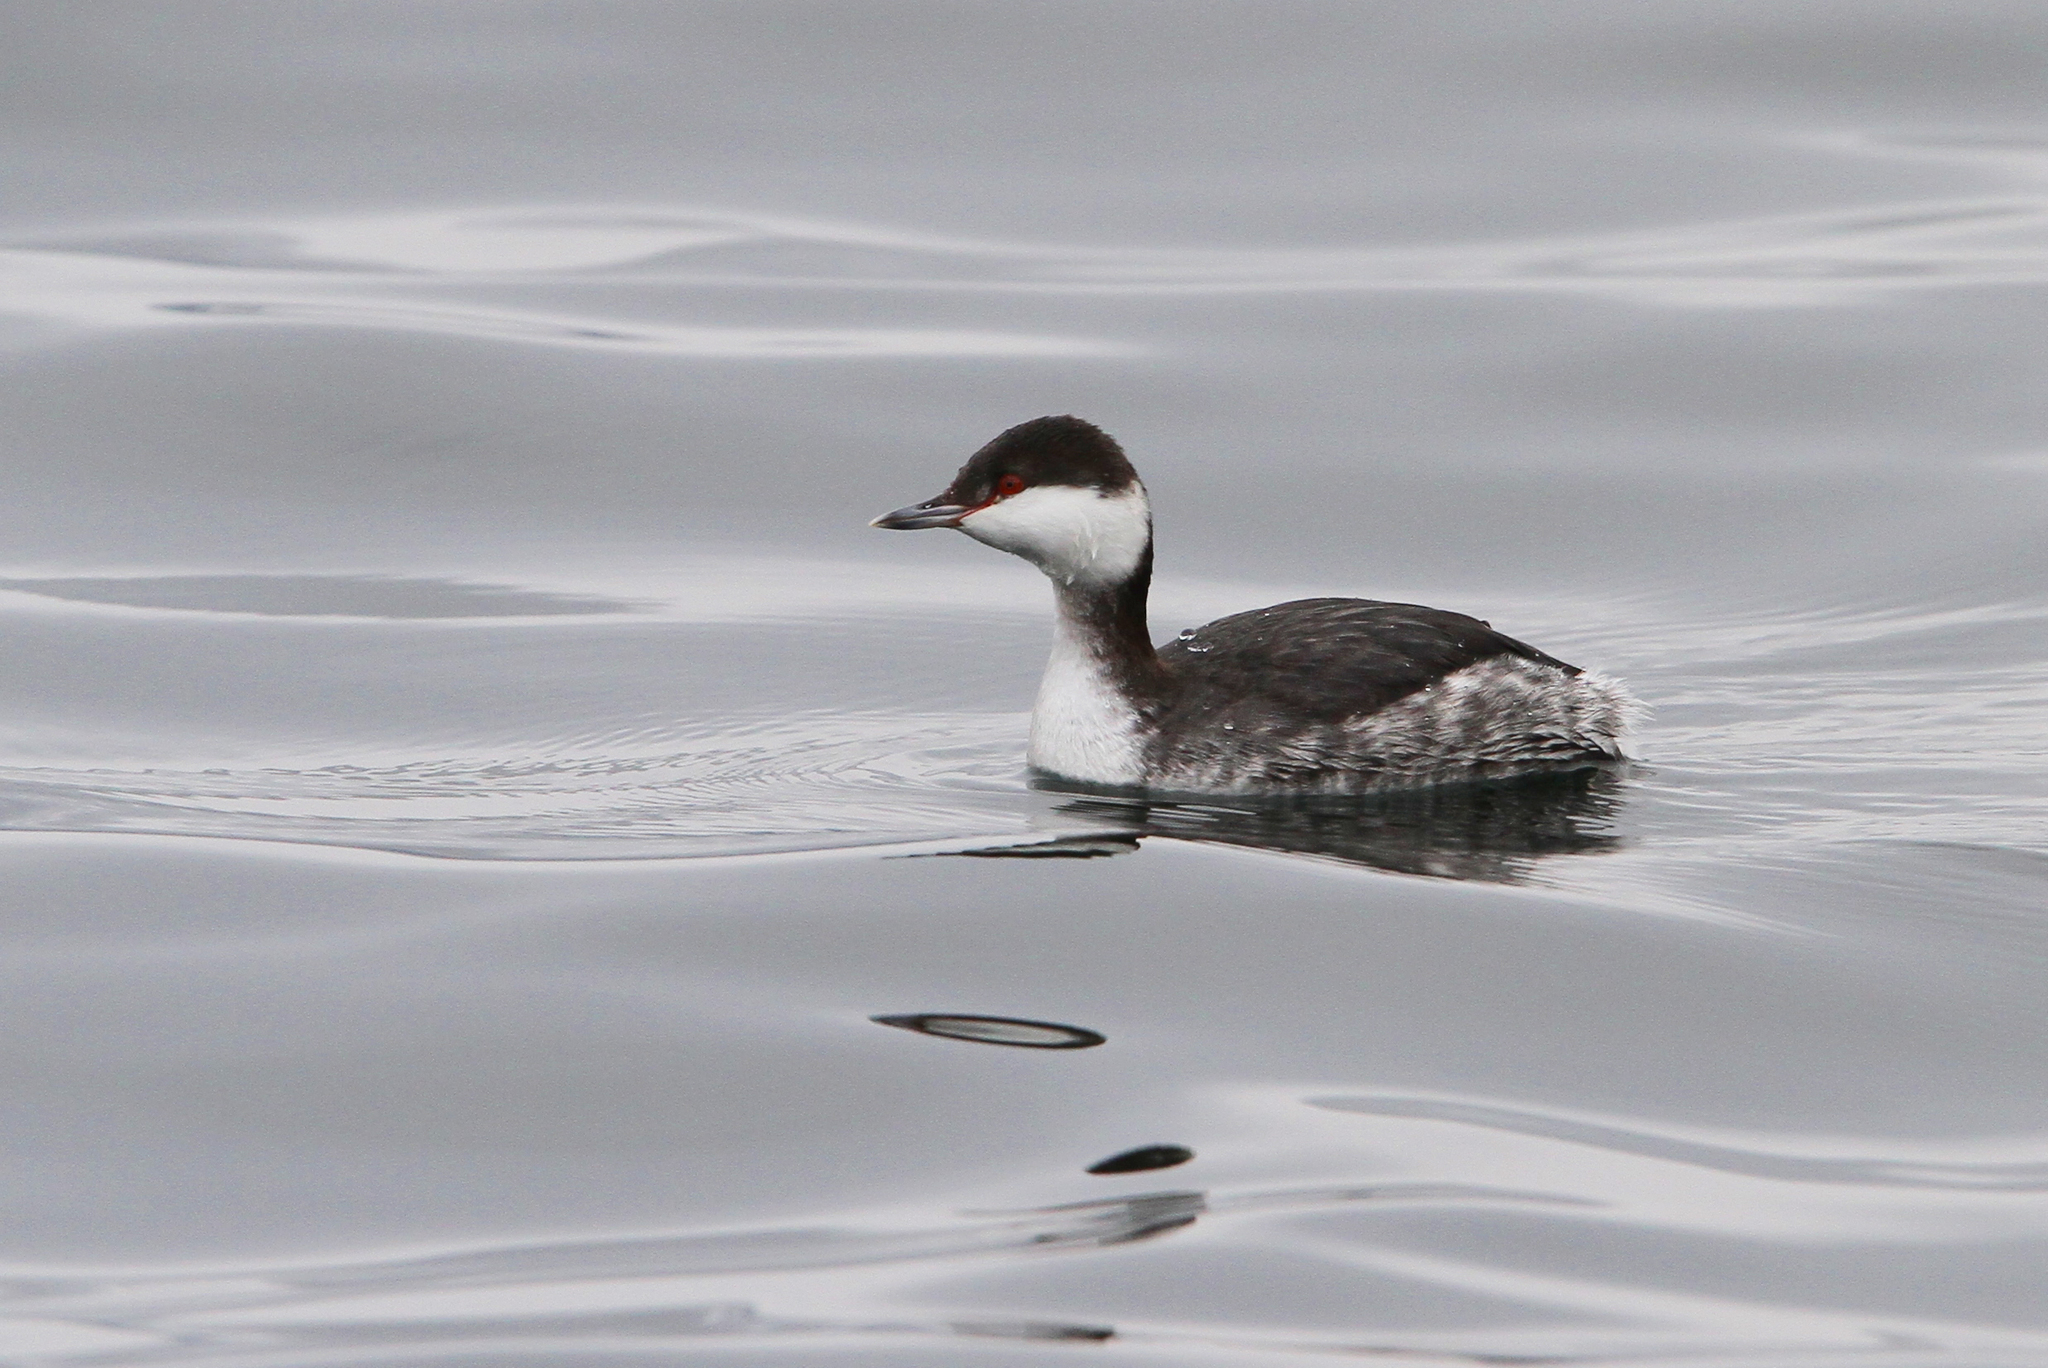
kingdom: Animalia
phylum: Chordata
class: Aves
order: Podicipediformes
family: Podicipedidae
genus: Podiceps
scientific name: Podiceps auritus
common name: Horned grebe
